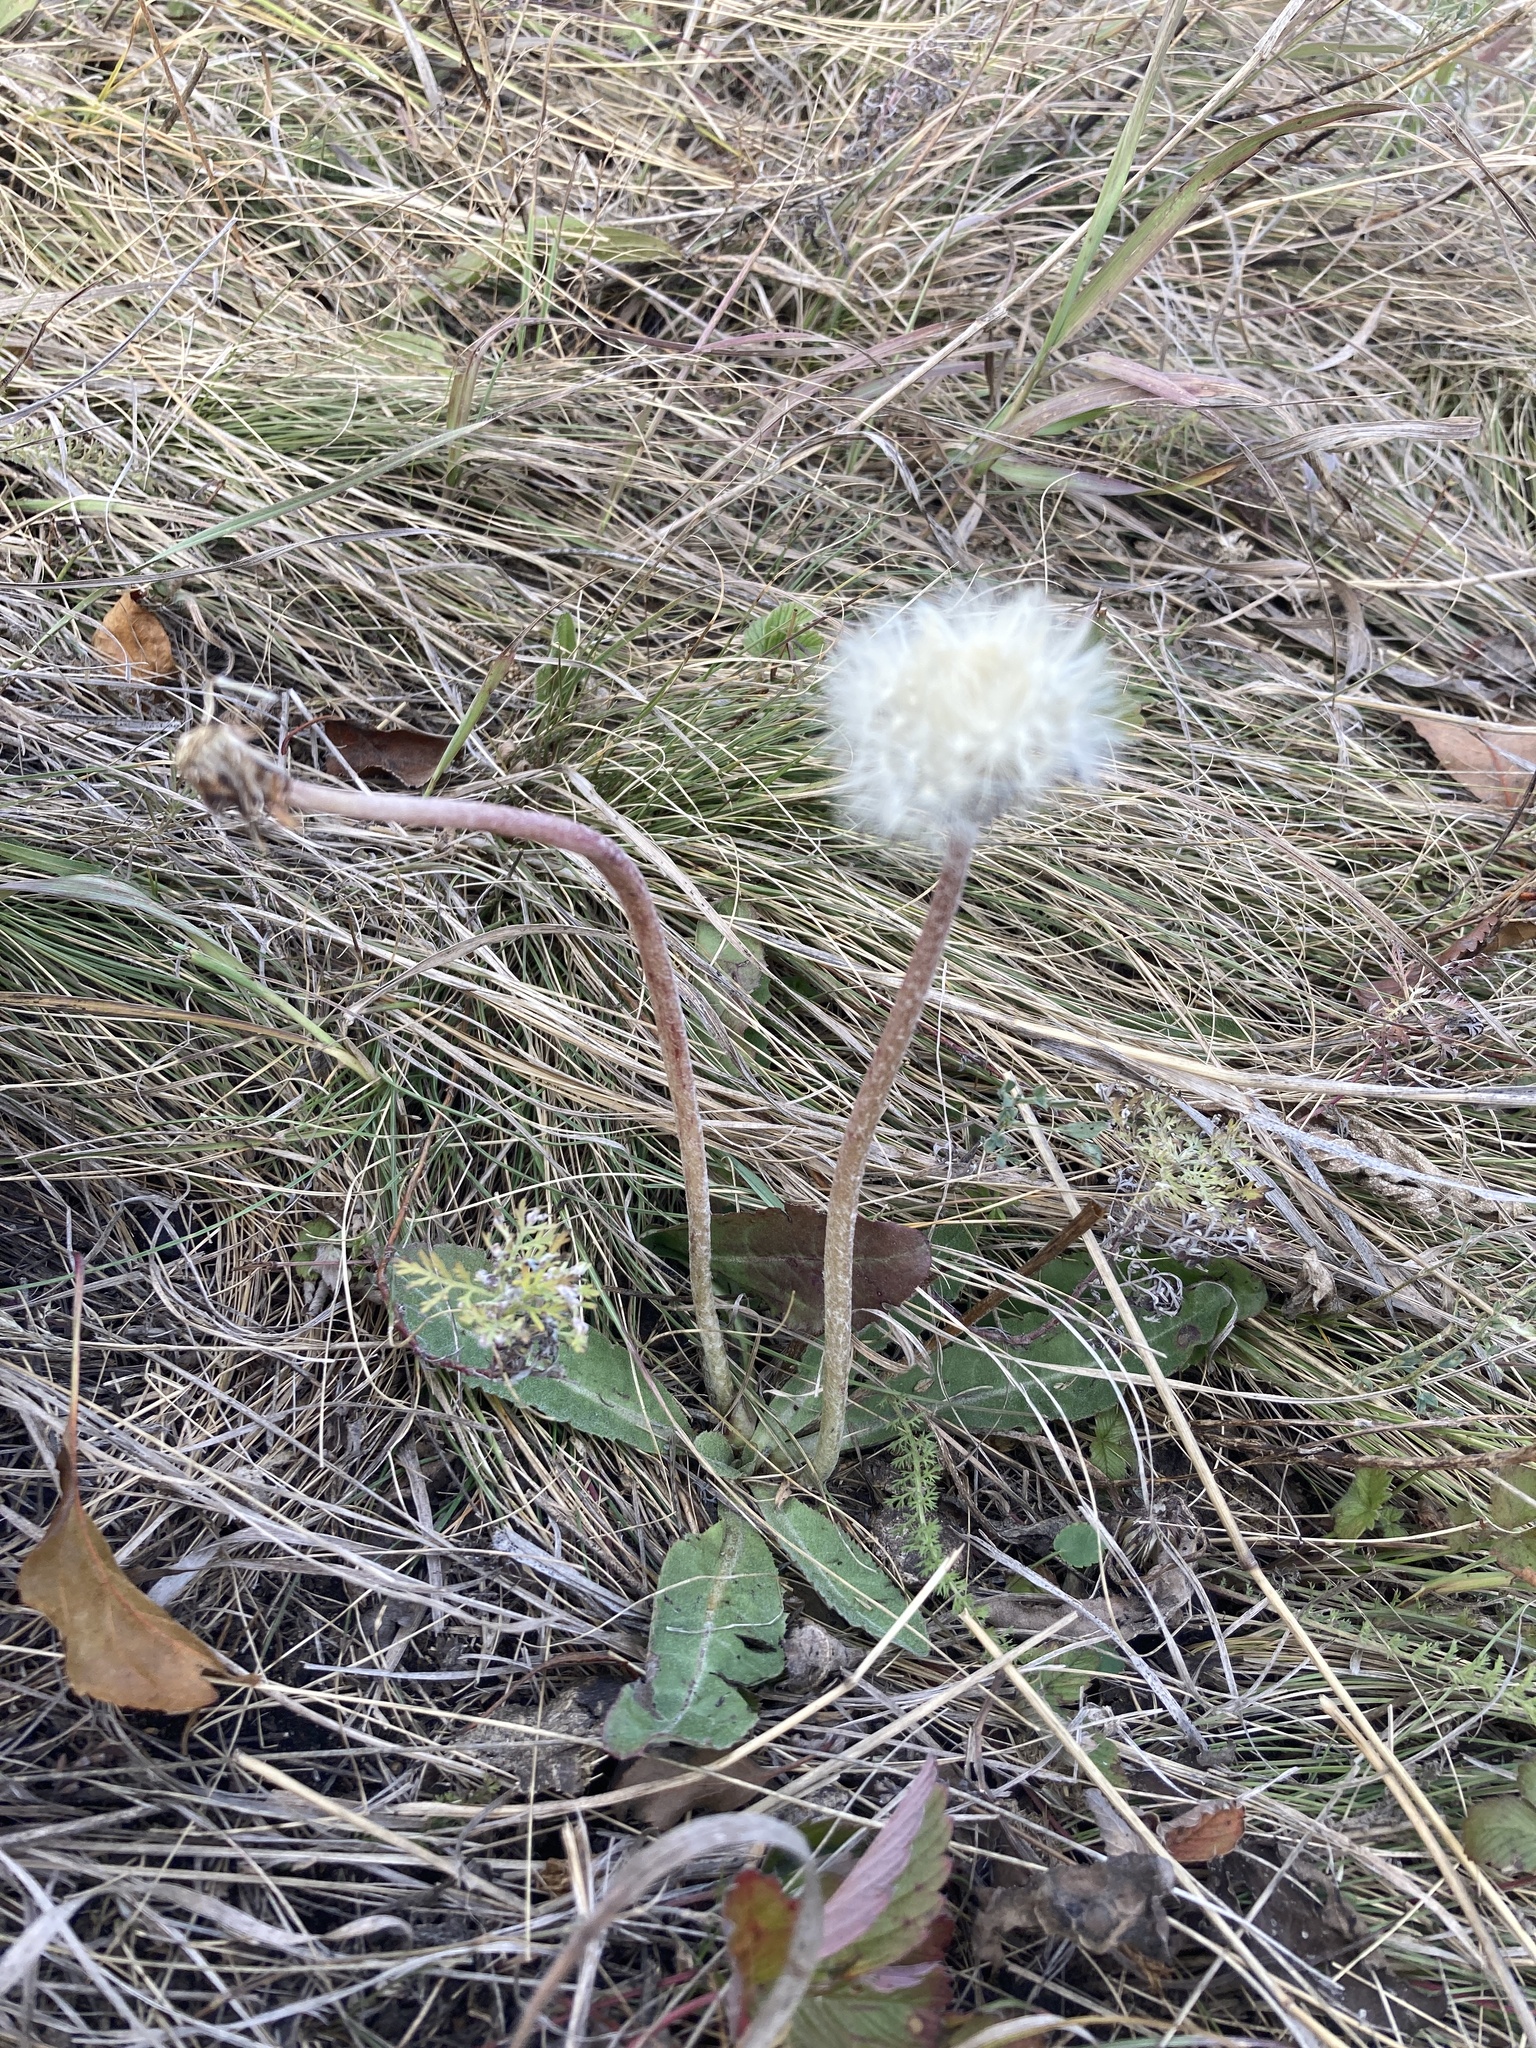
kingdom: Plantae
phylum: Tracheophyta
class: Magnoliopsida
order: Asterales
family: Asteraceae
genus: Taraxacum
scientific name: Taraxacum serotinum
